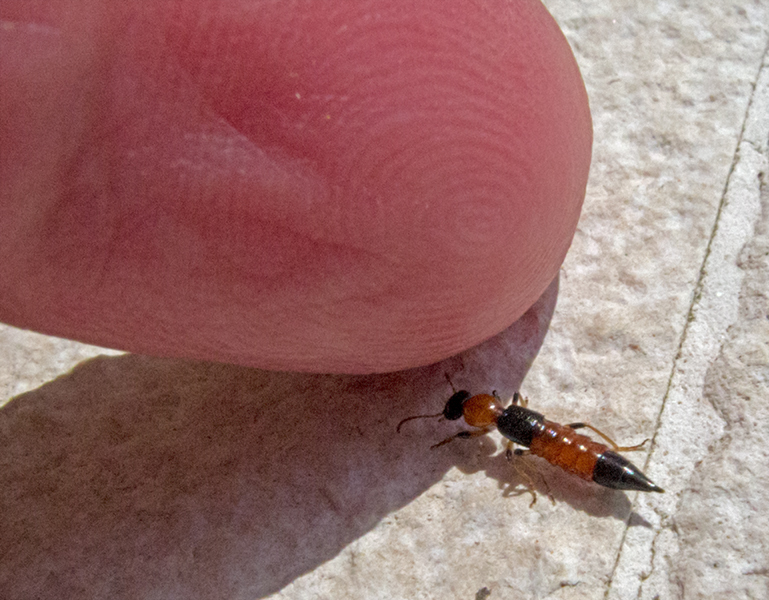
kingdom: Animalia
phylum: Arthropoda
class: Insecta
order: Coleoptera
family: Staphylinidae
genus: Paederus
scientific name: Paederus littoralis
